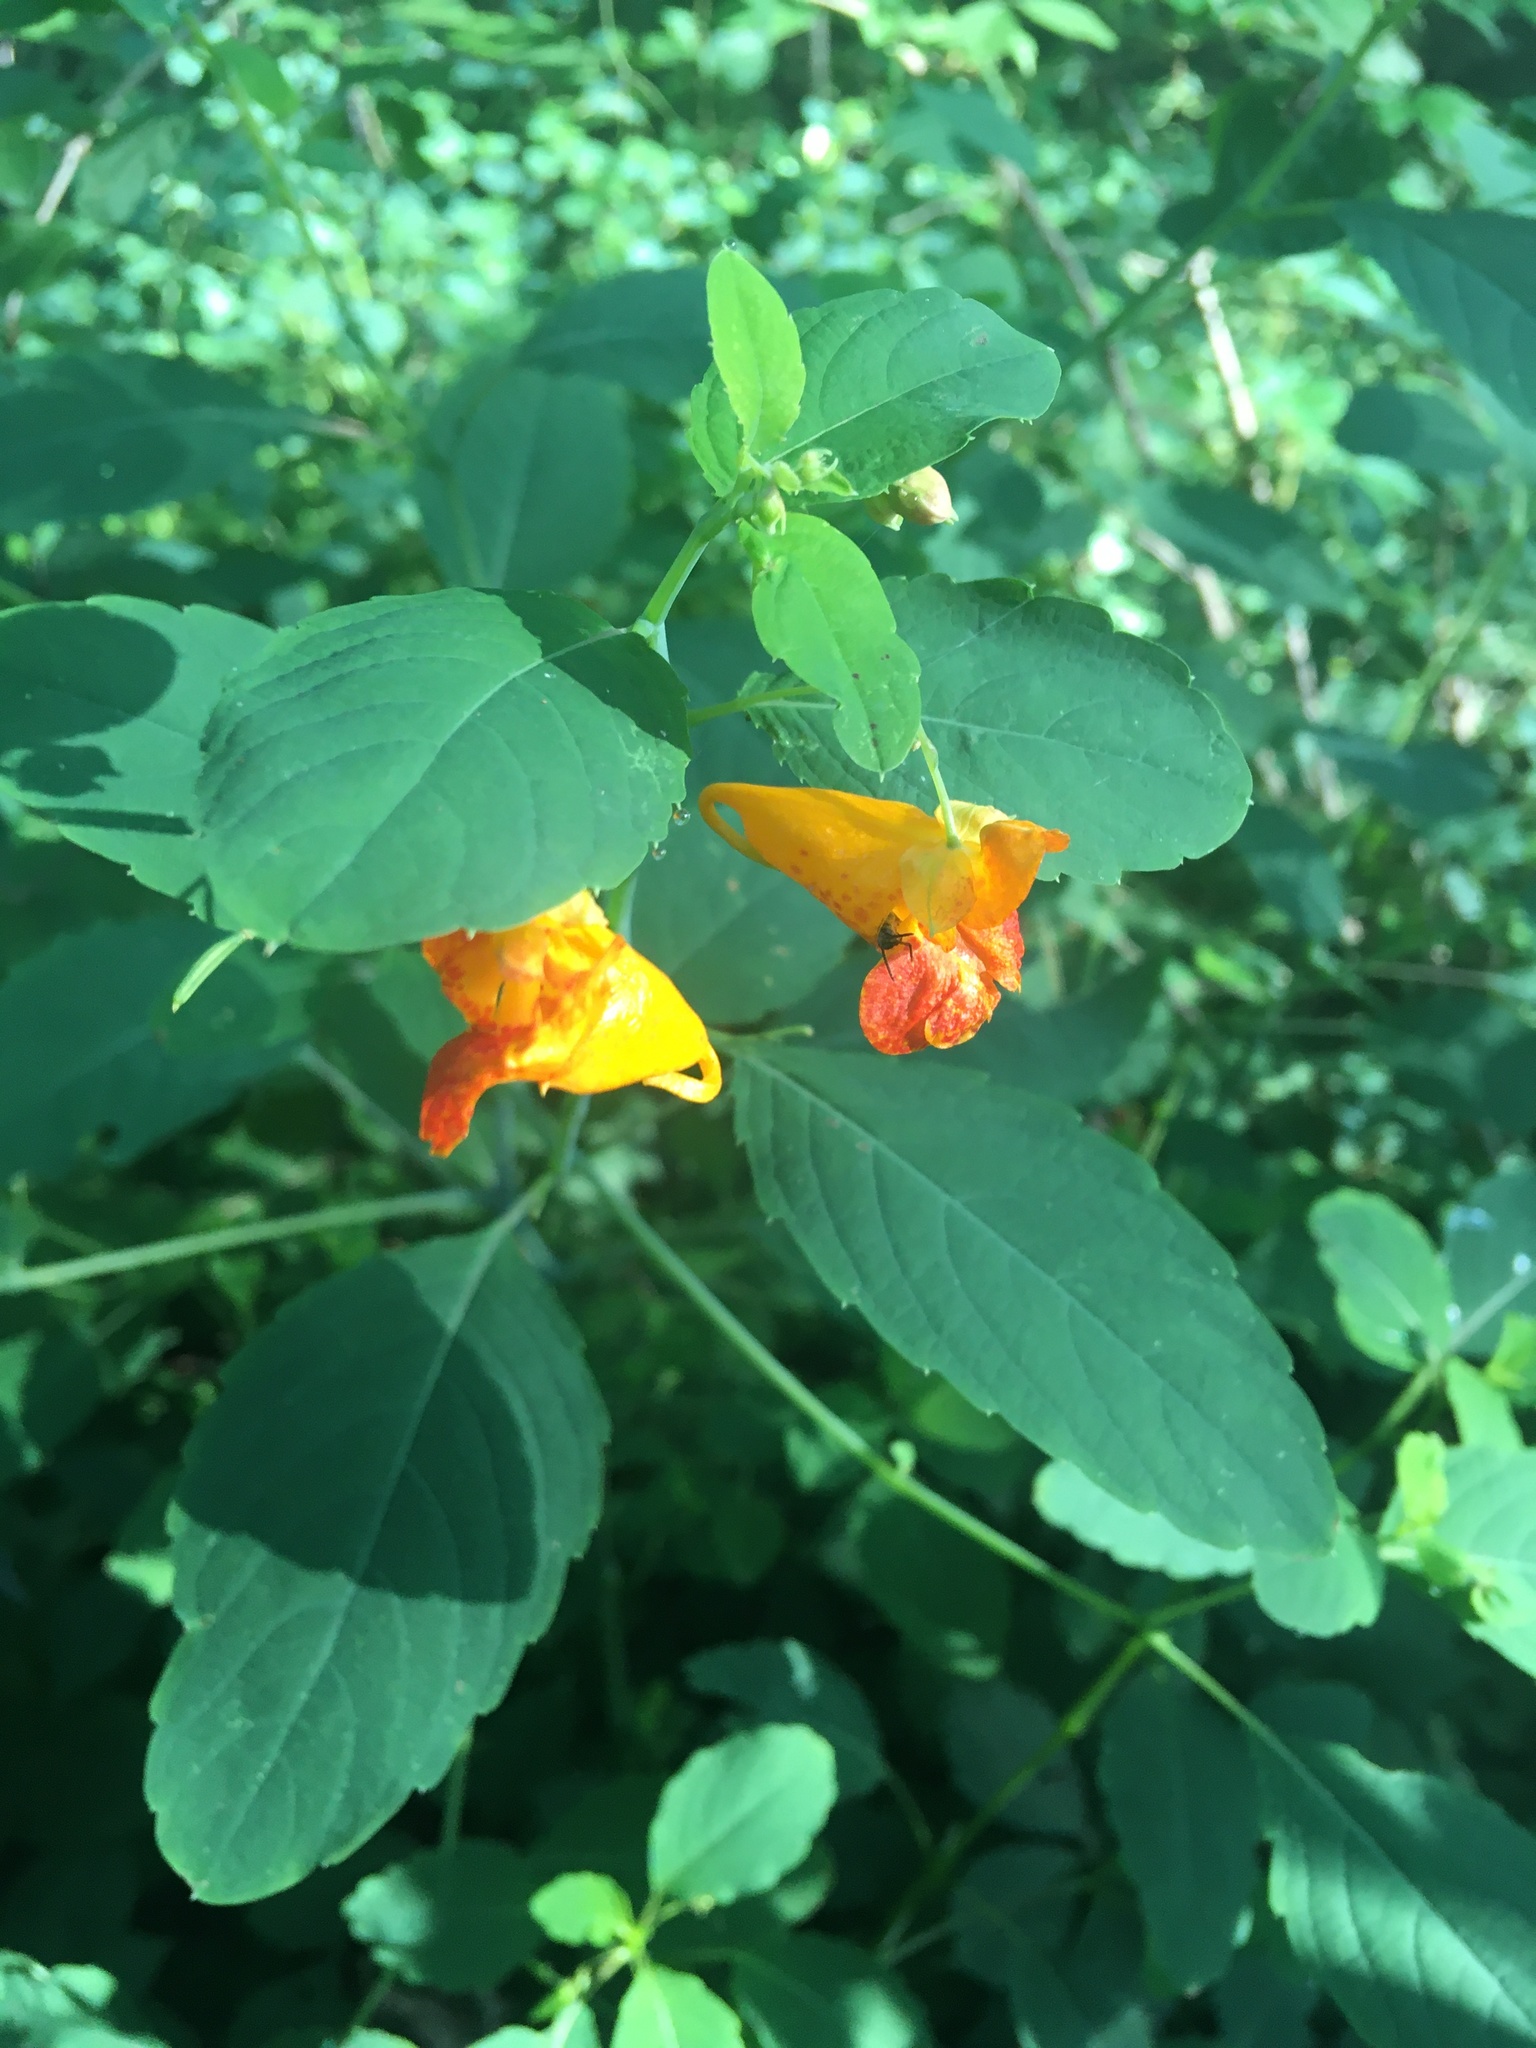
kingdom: Plantae
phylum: Tracheophyta
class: Magnoliopsida
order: Ericales
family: Balsaminaceae
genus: Impatiens
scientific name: Impatiens capensis
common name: Orange balsam
